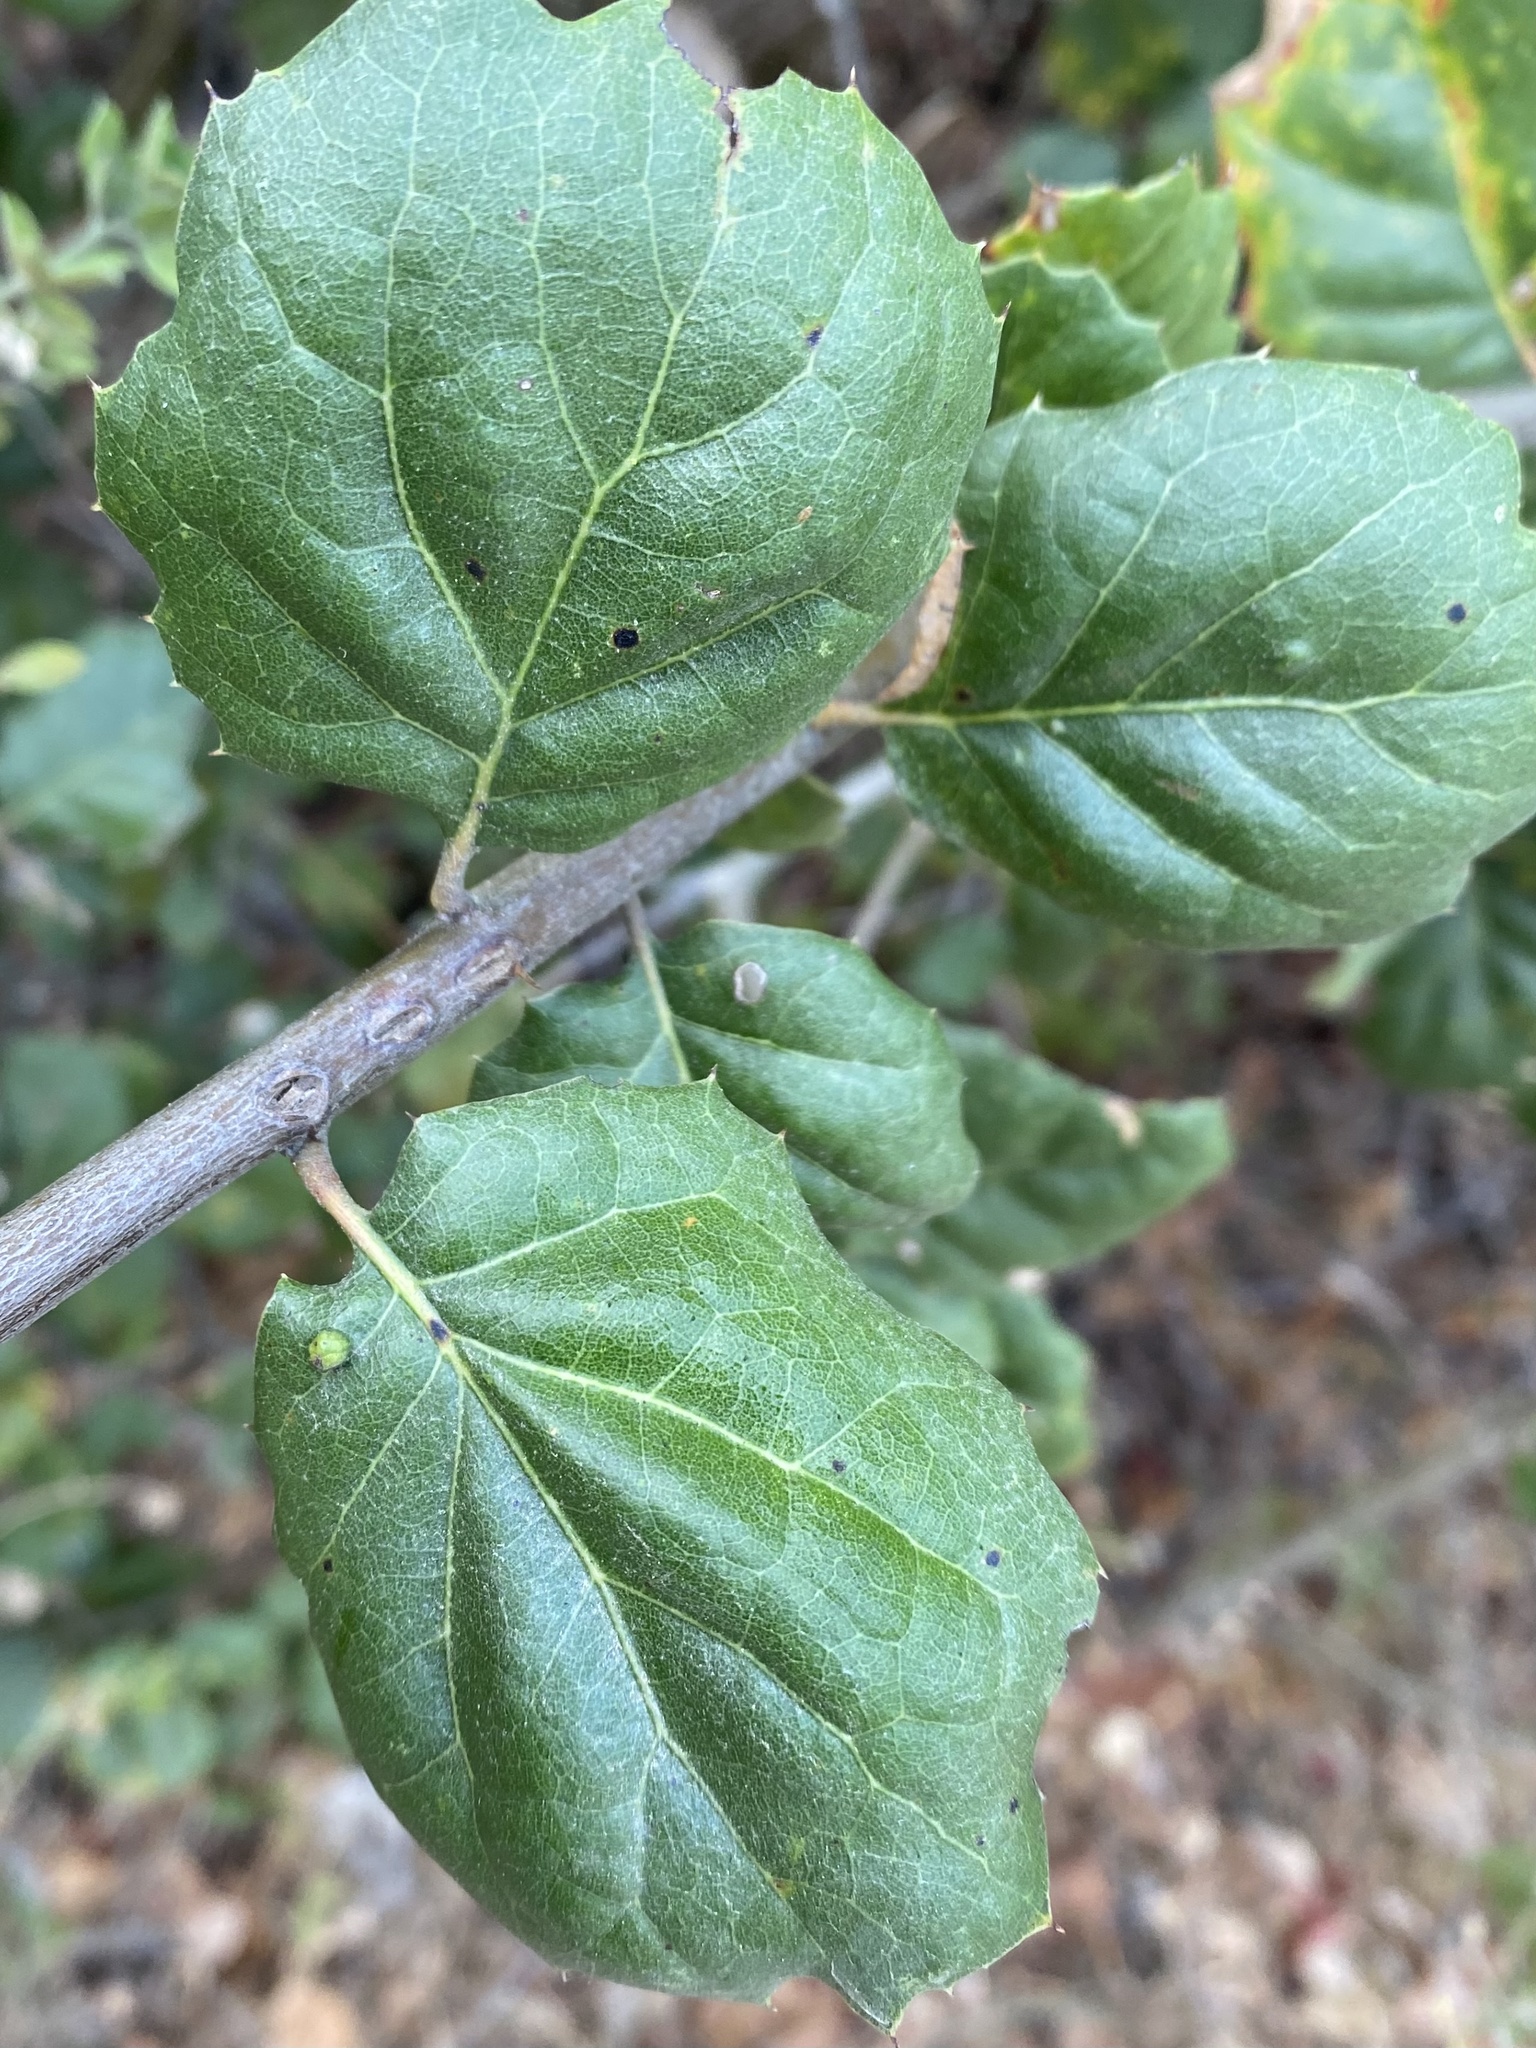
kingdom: Plantae
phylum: Tracheophyta
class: Magnoliopsida
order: Fagales
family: Fagaceae
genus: Quercus
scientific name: Quercus agrifolia
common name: California live oak
